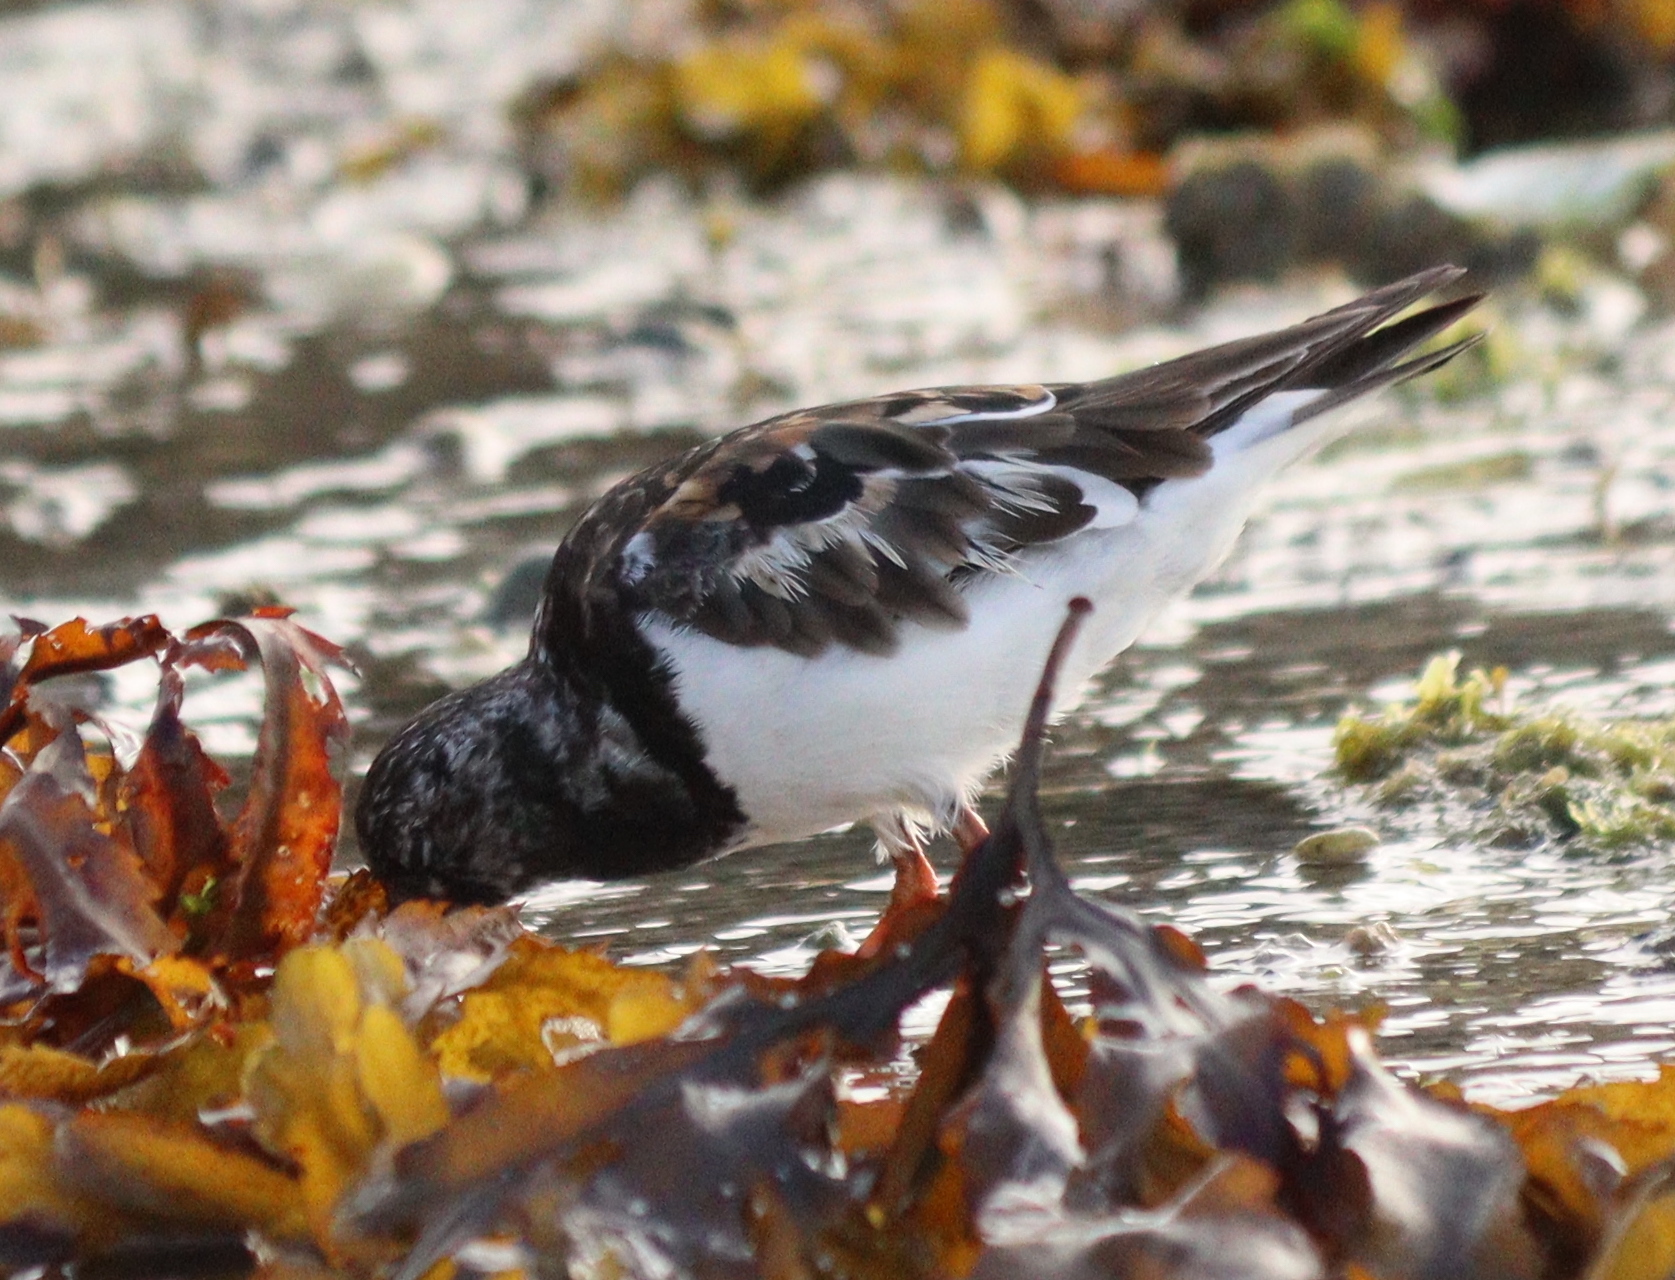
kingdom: Animalia
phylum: Chordata
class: Aves
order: Charadriiformes
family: Scolopacidae
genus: Arenaria
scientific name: Arenaria interpres
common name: Ruddy turnstone
